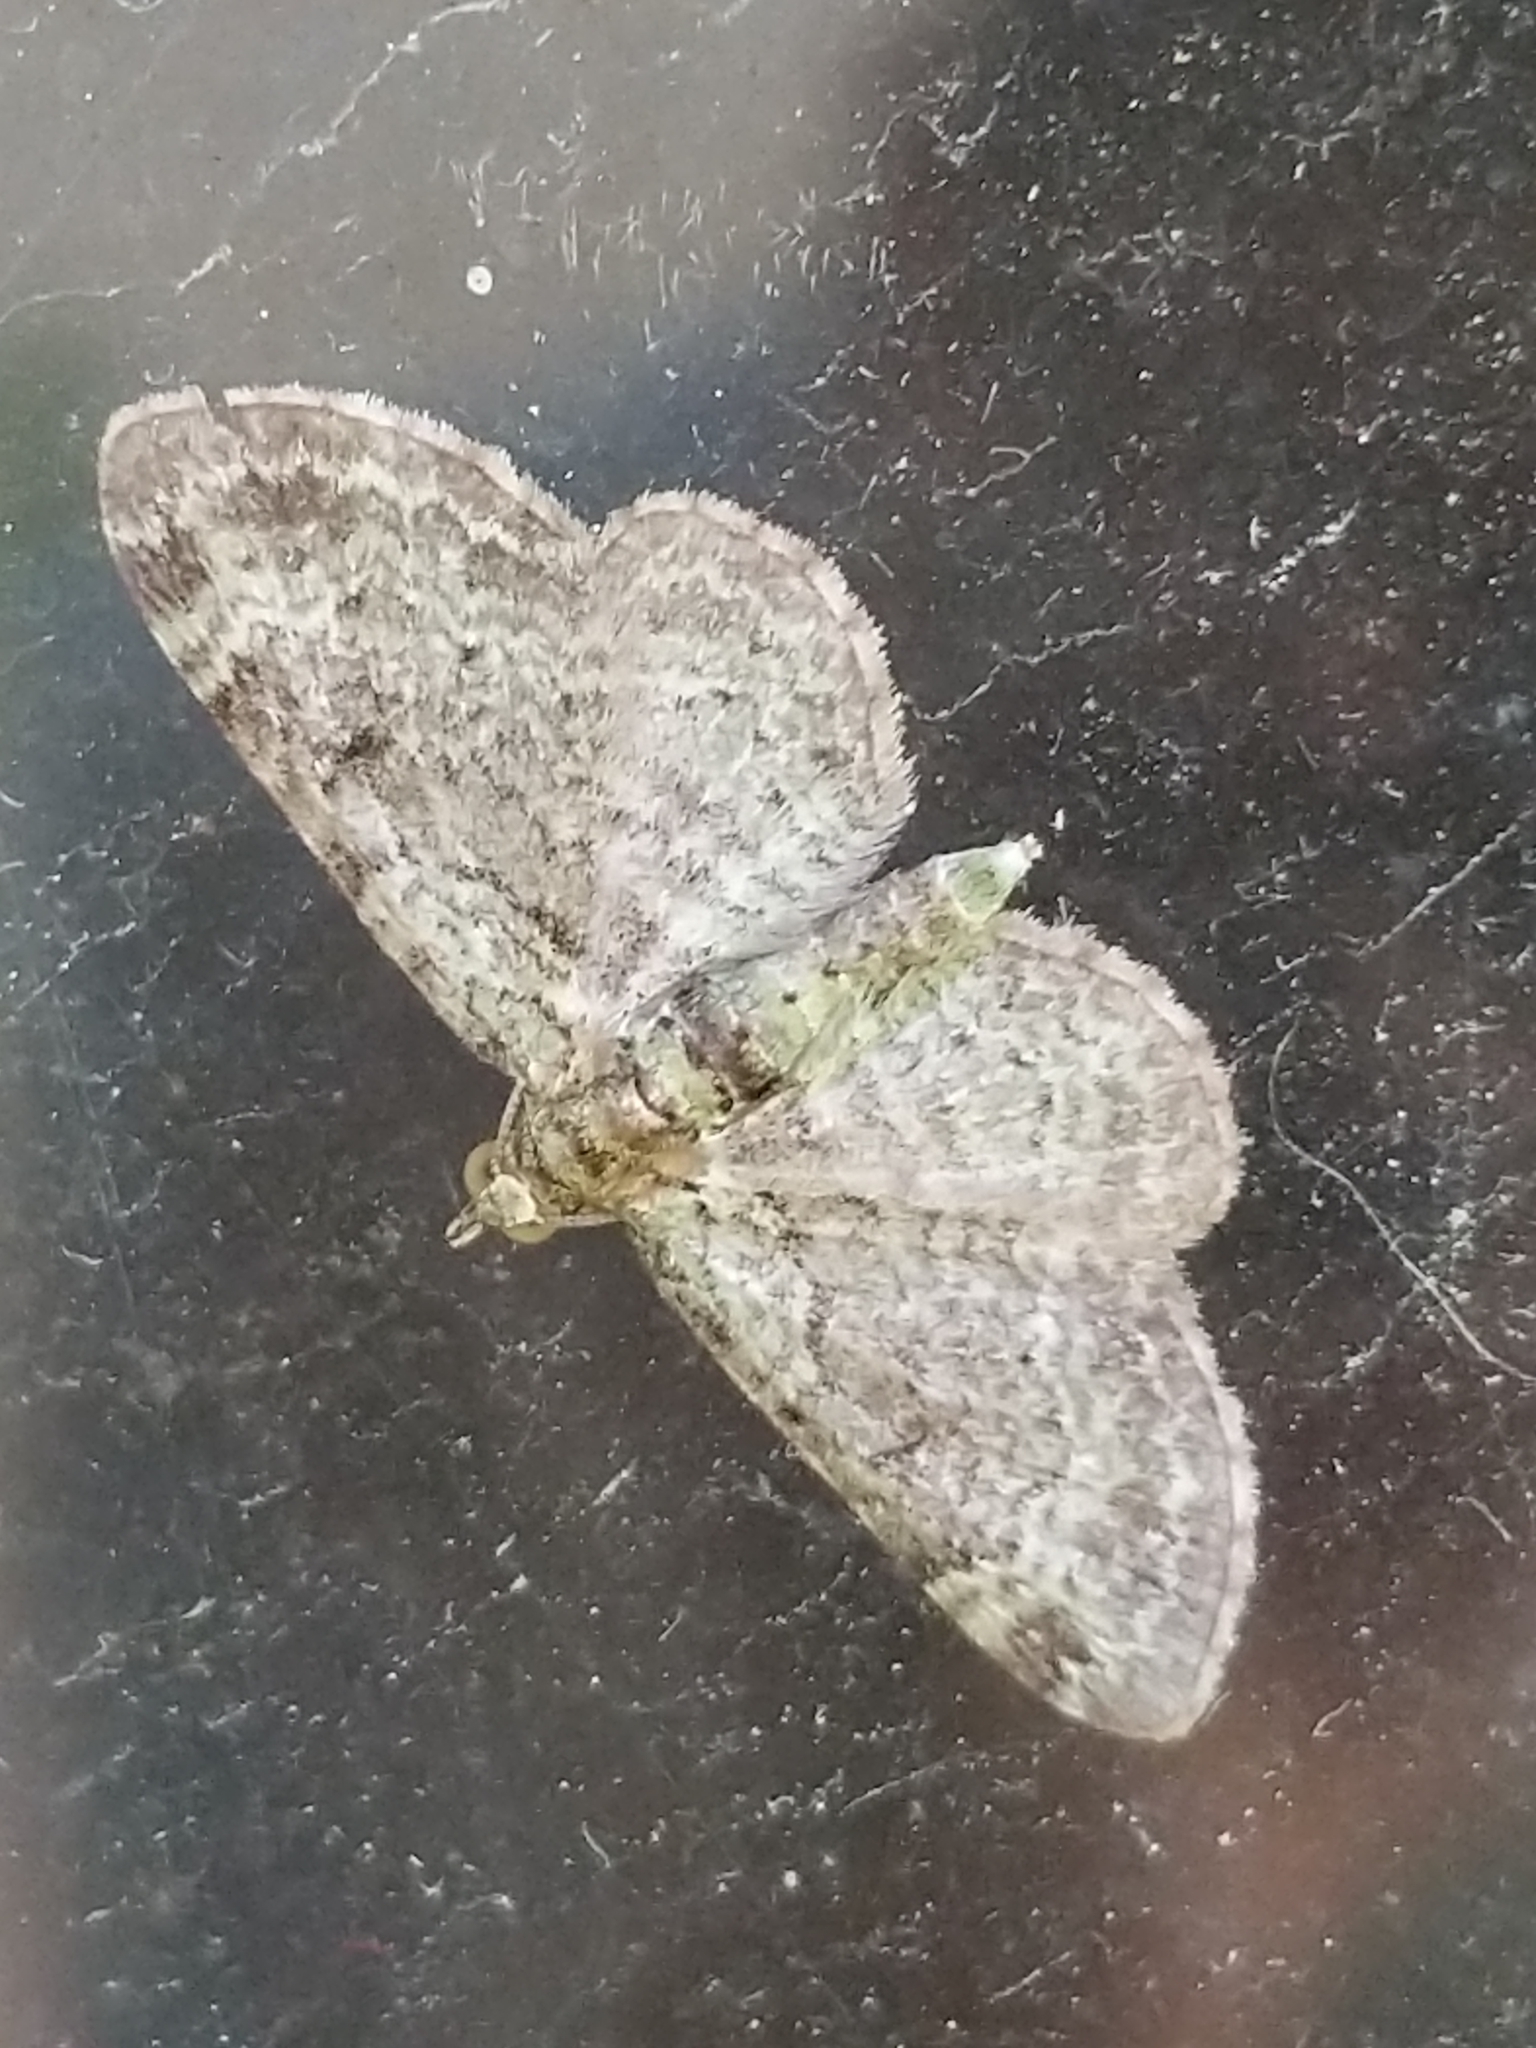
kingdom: Animalia
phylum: Arthropoda
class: Insecta
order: Lepidoptera
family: Geometridae
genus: Pasiphila
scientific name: Pasiphila rectangulata
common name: Green pug
